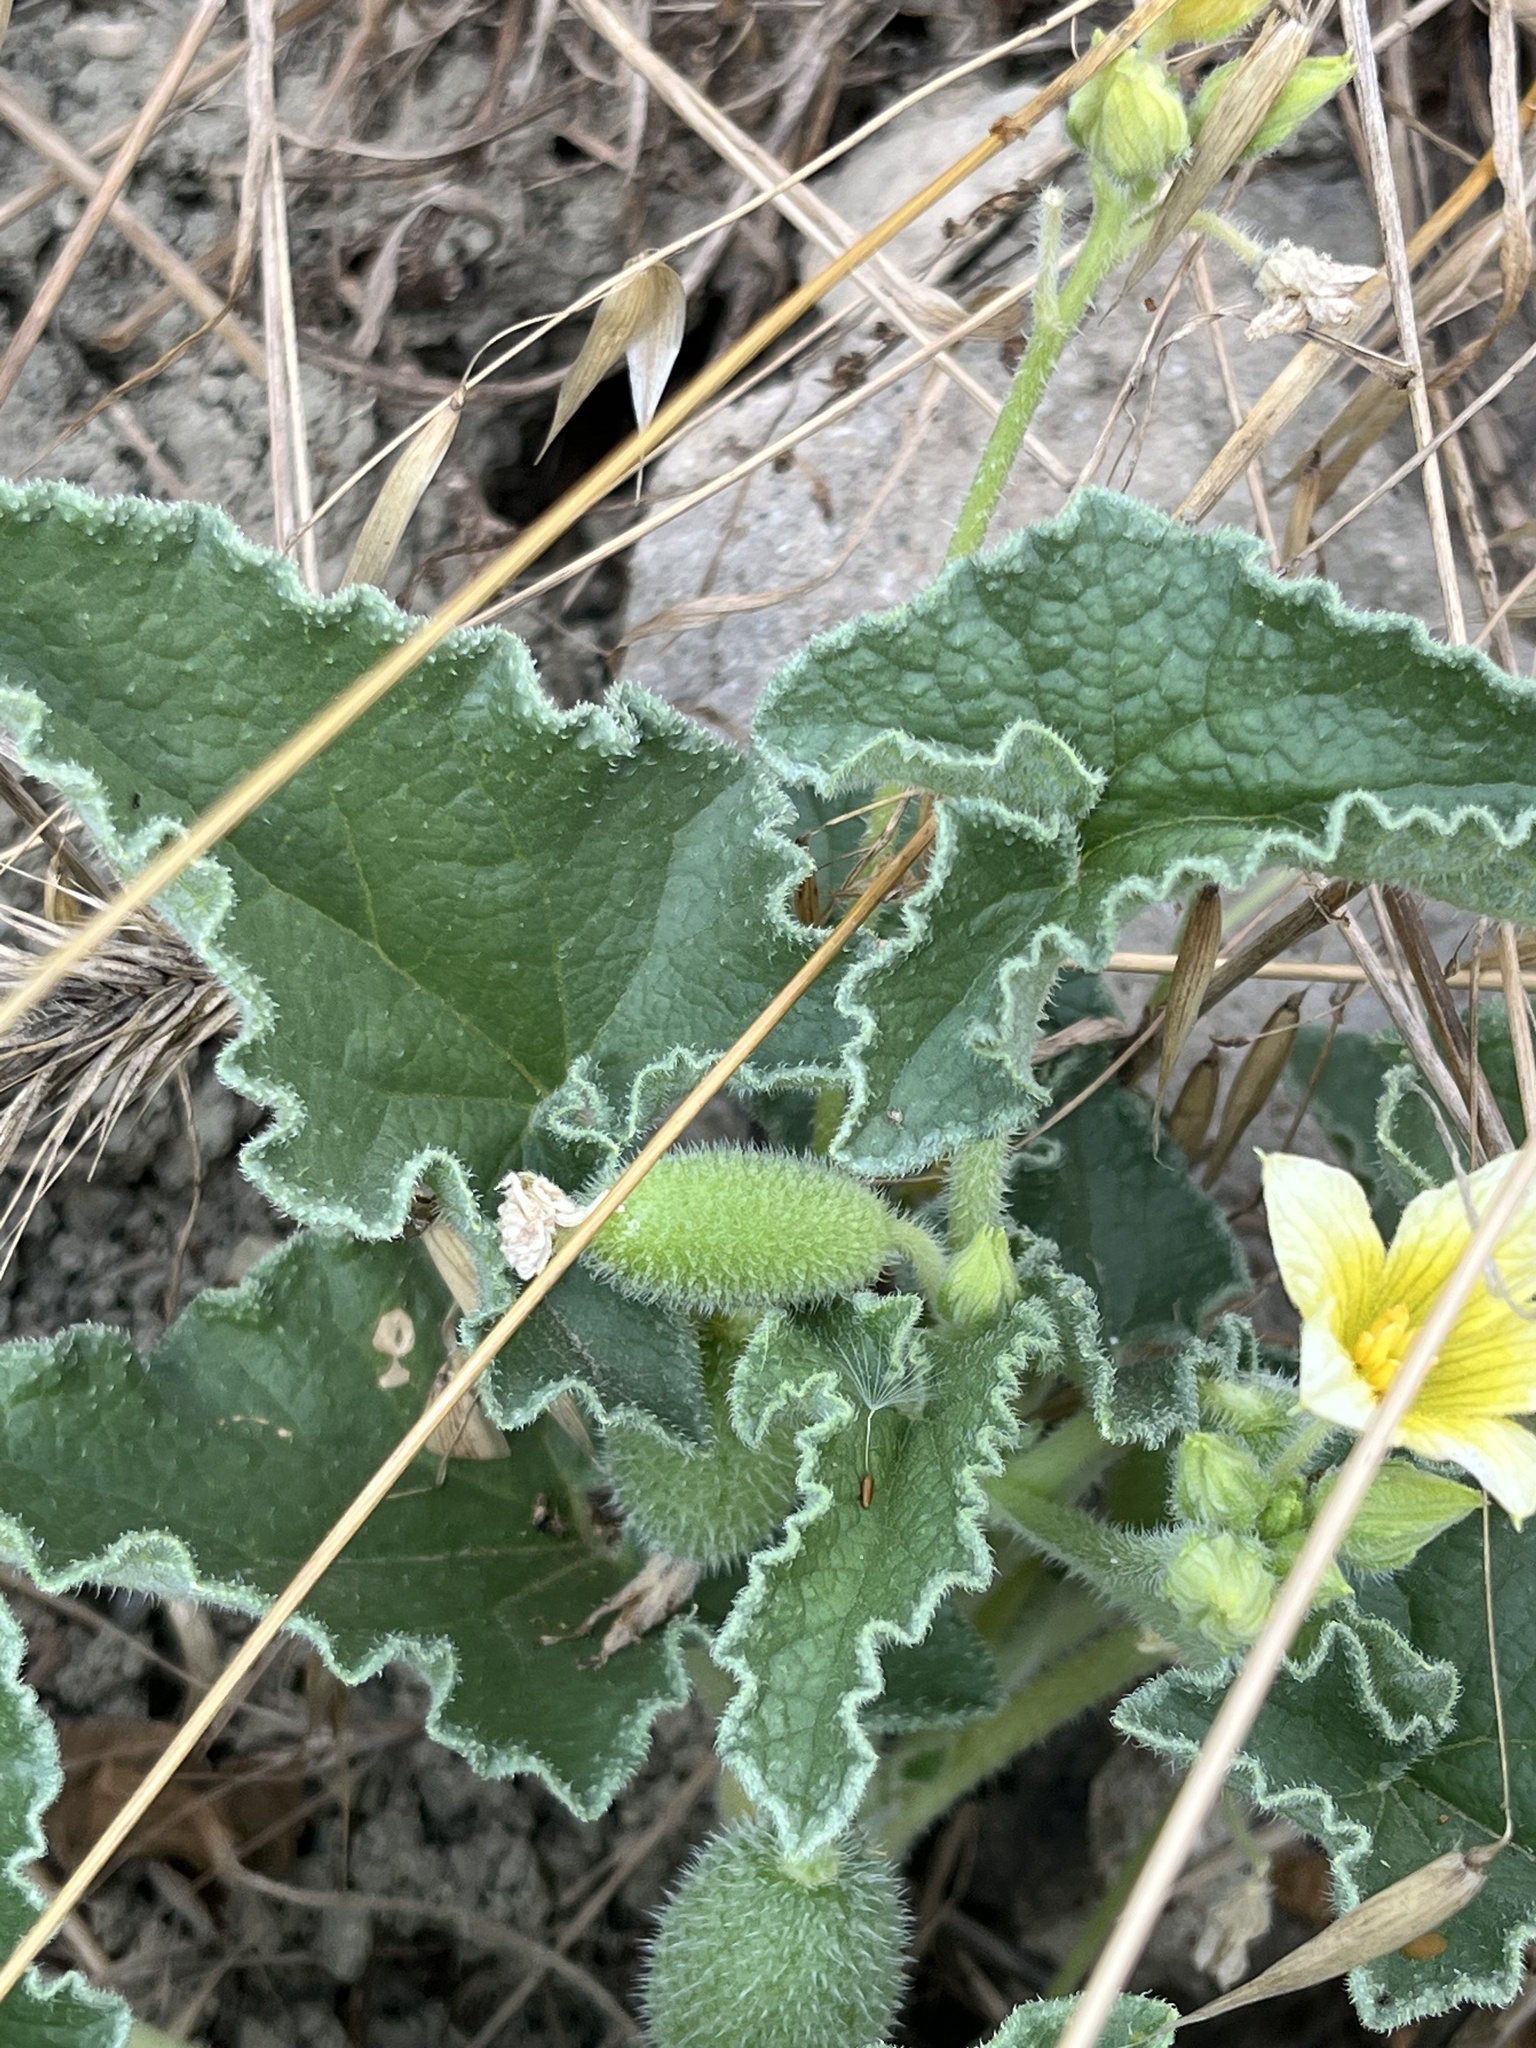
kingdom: Plantae
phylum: Tracheophyta
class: Magnoliopsida
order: Cucurbitales
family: Cucurbitaceae
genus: Ecballium
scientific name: Ecballium elaterium
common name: Squirting cucumber
